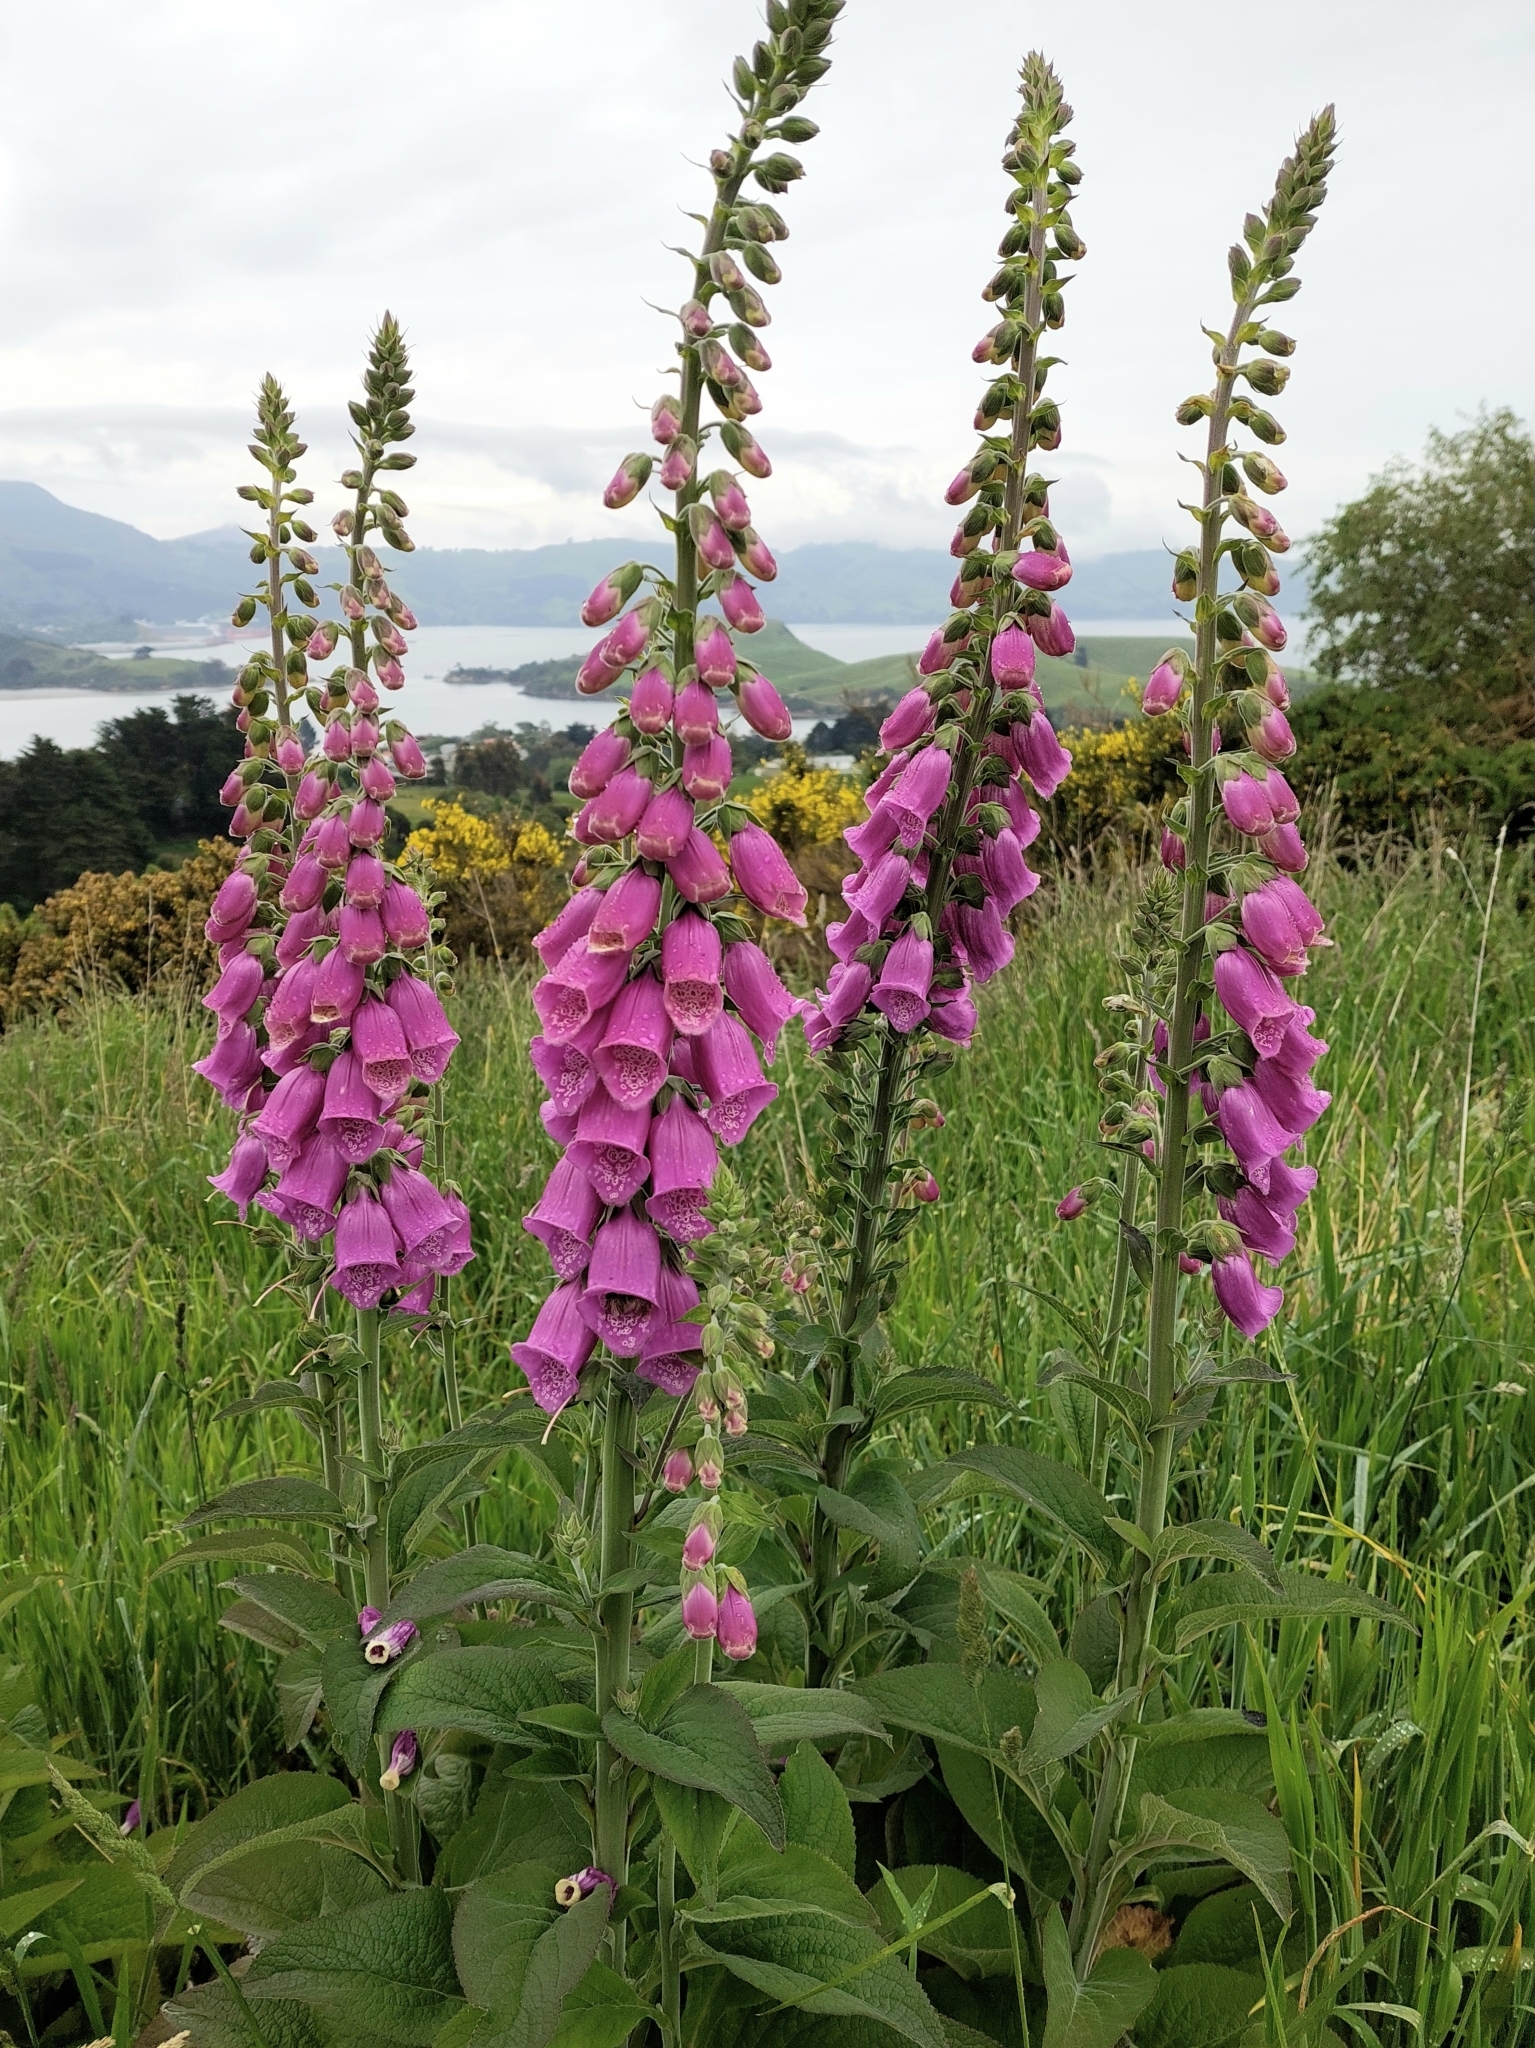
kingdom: Plantae
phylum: Tracheophyta
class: Magnoliopsida
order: Lamiales
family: Plantaginaceae
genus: Digitalis
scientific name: Digitalis purpurea
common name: Foxglove
